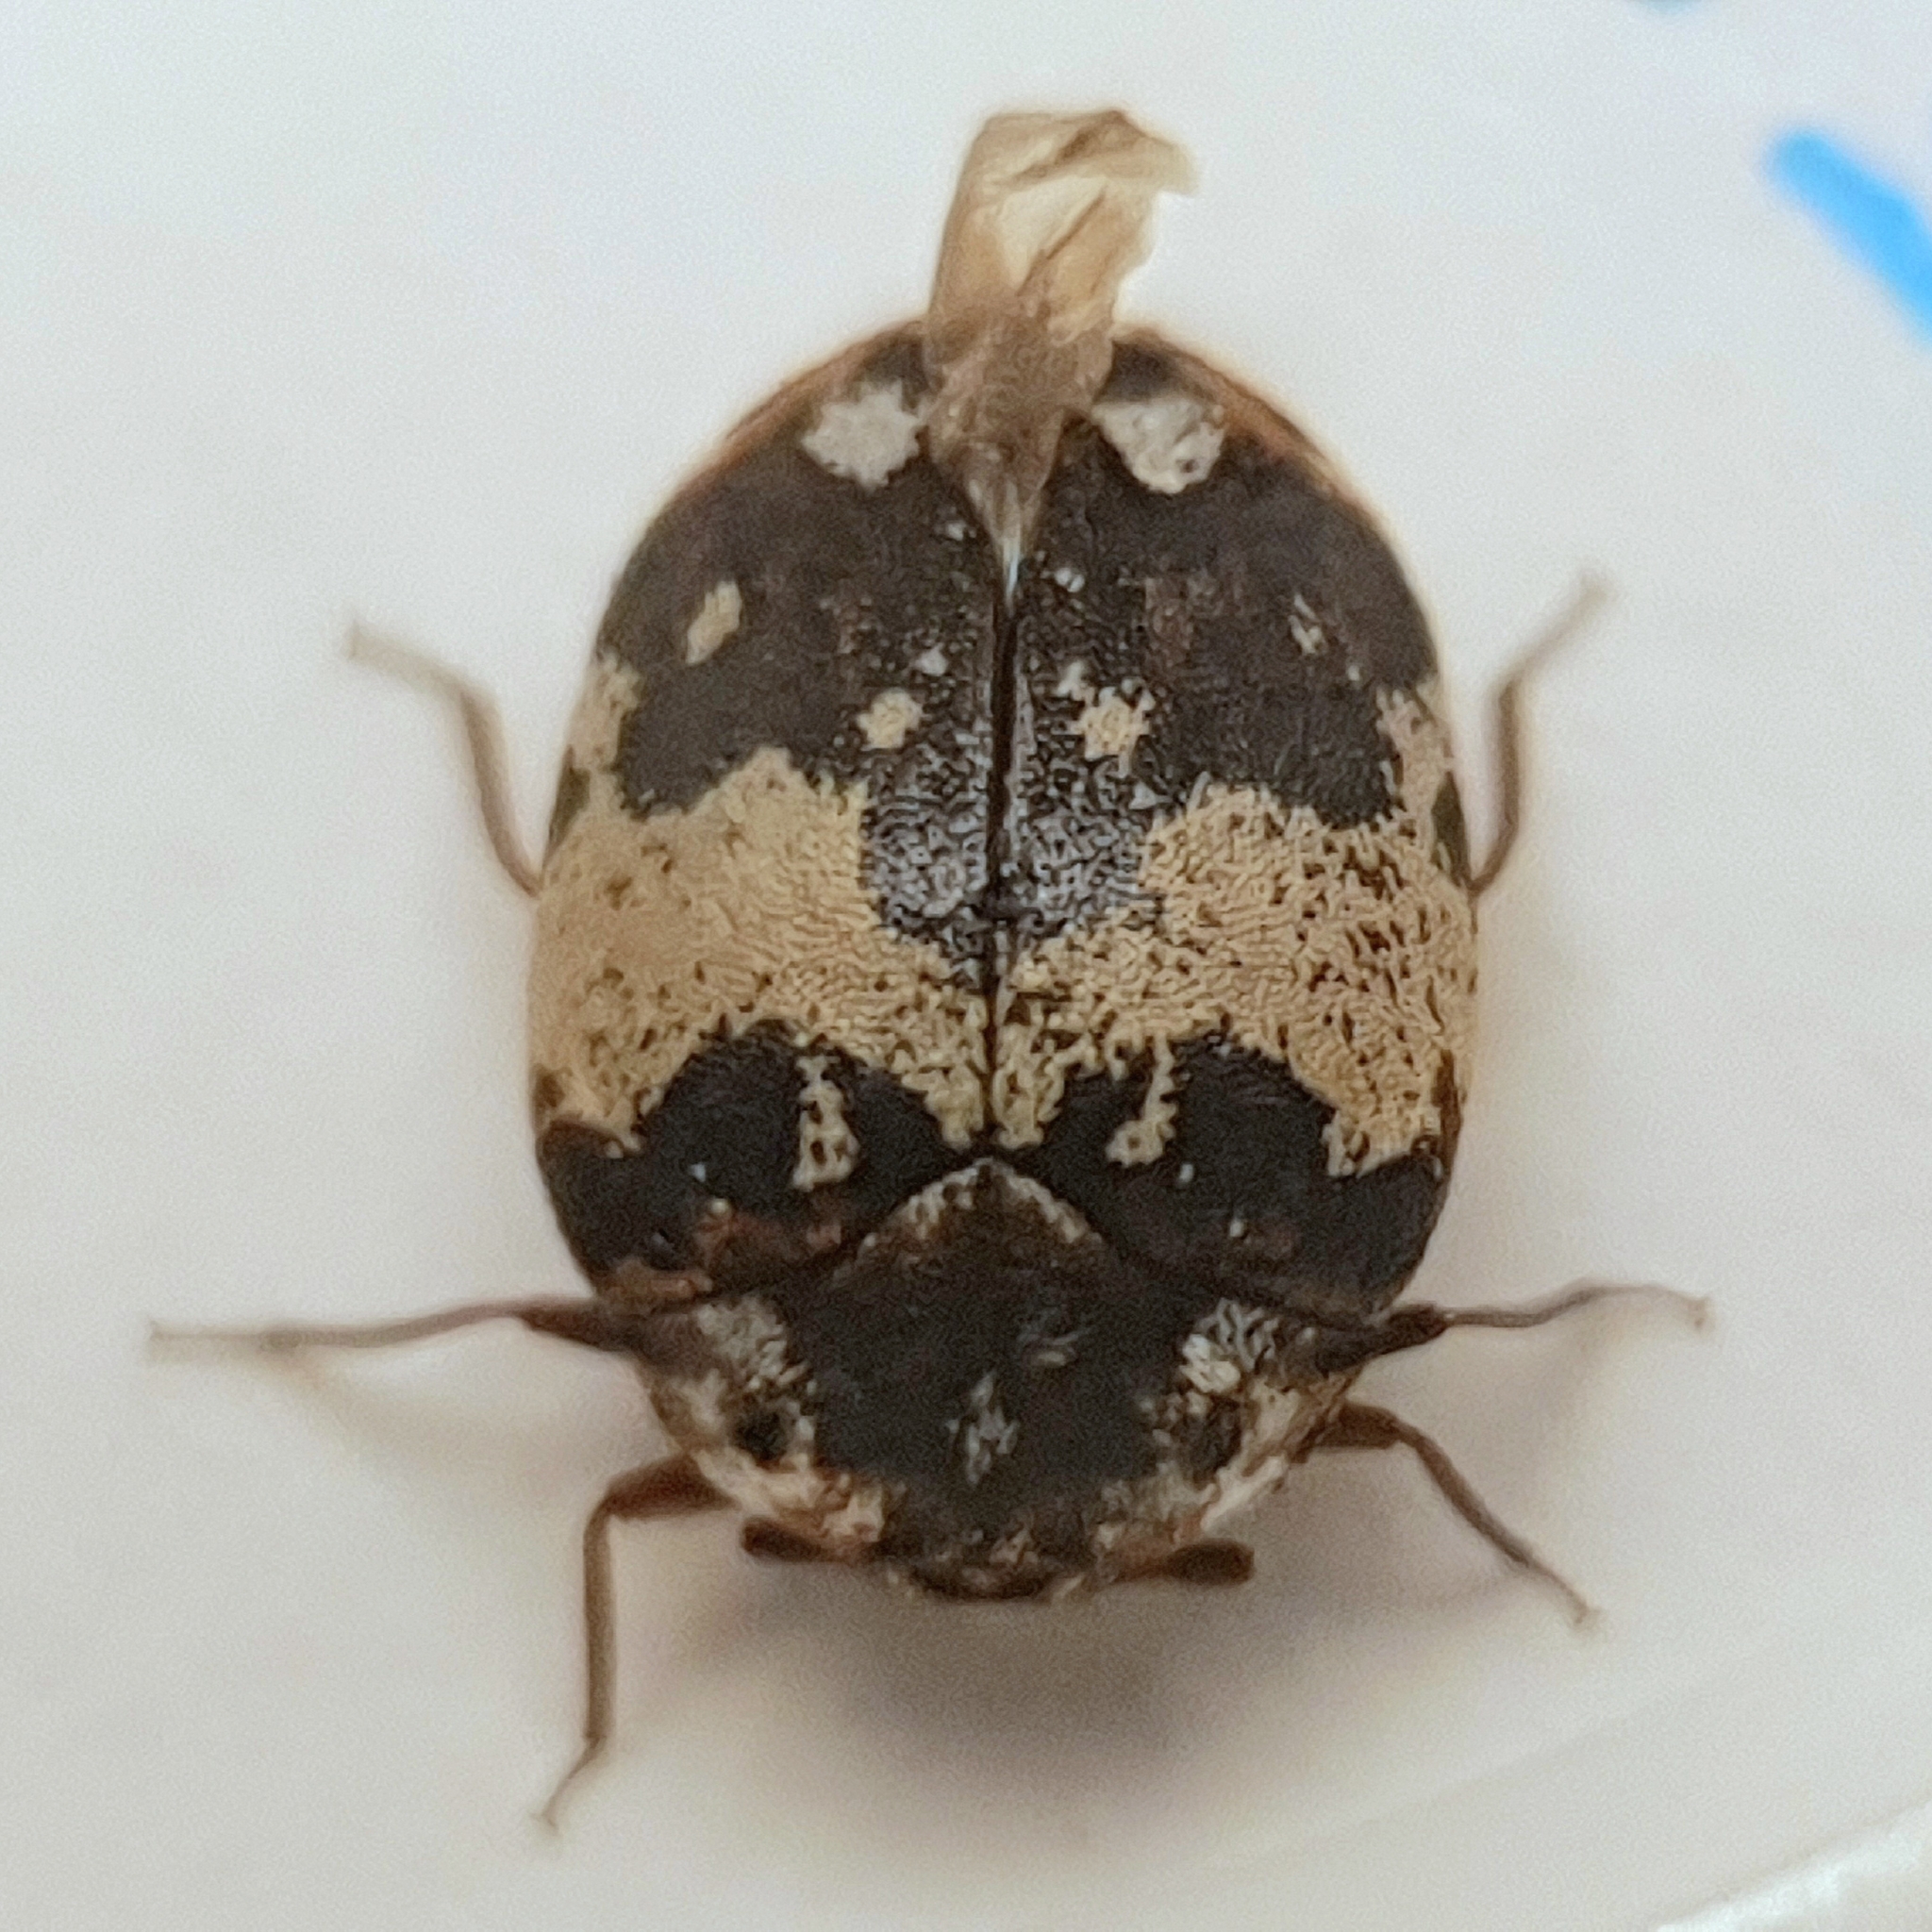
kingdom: Animalia
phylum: Arthropoda
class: Insecta
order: Coleoptera
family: Dermestidae
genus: Anthrenus
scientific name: Anthrenus isabellinus
